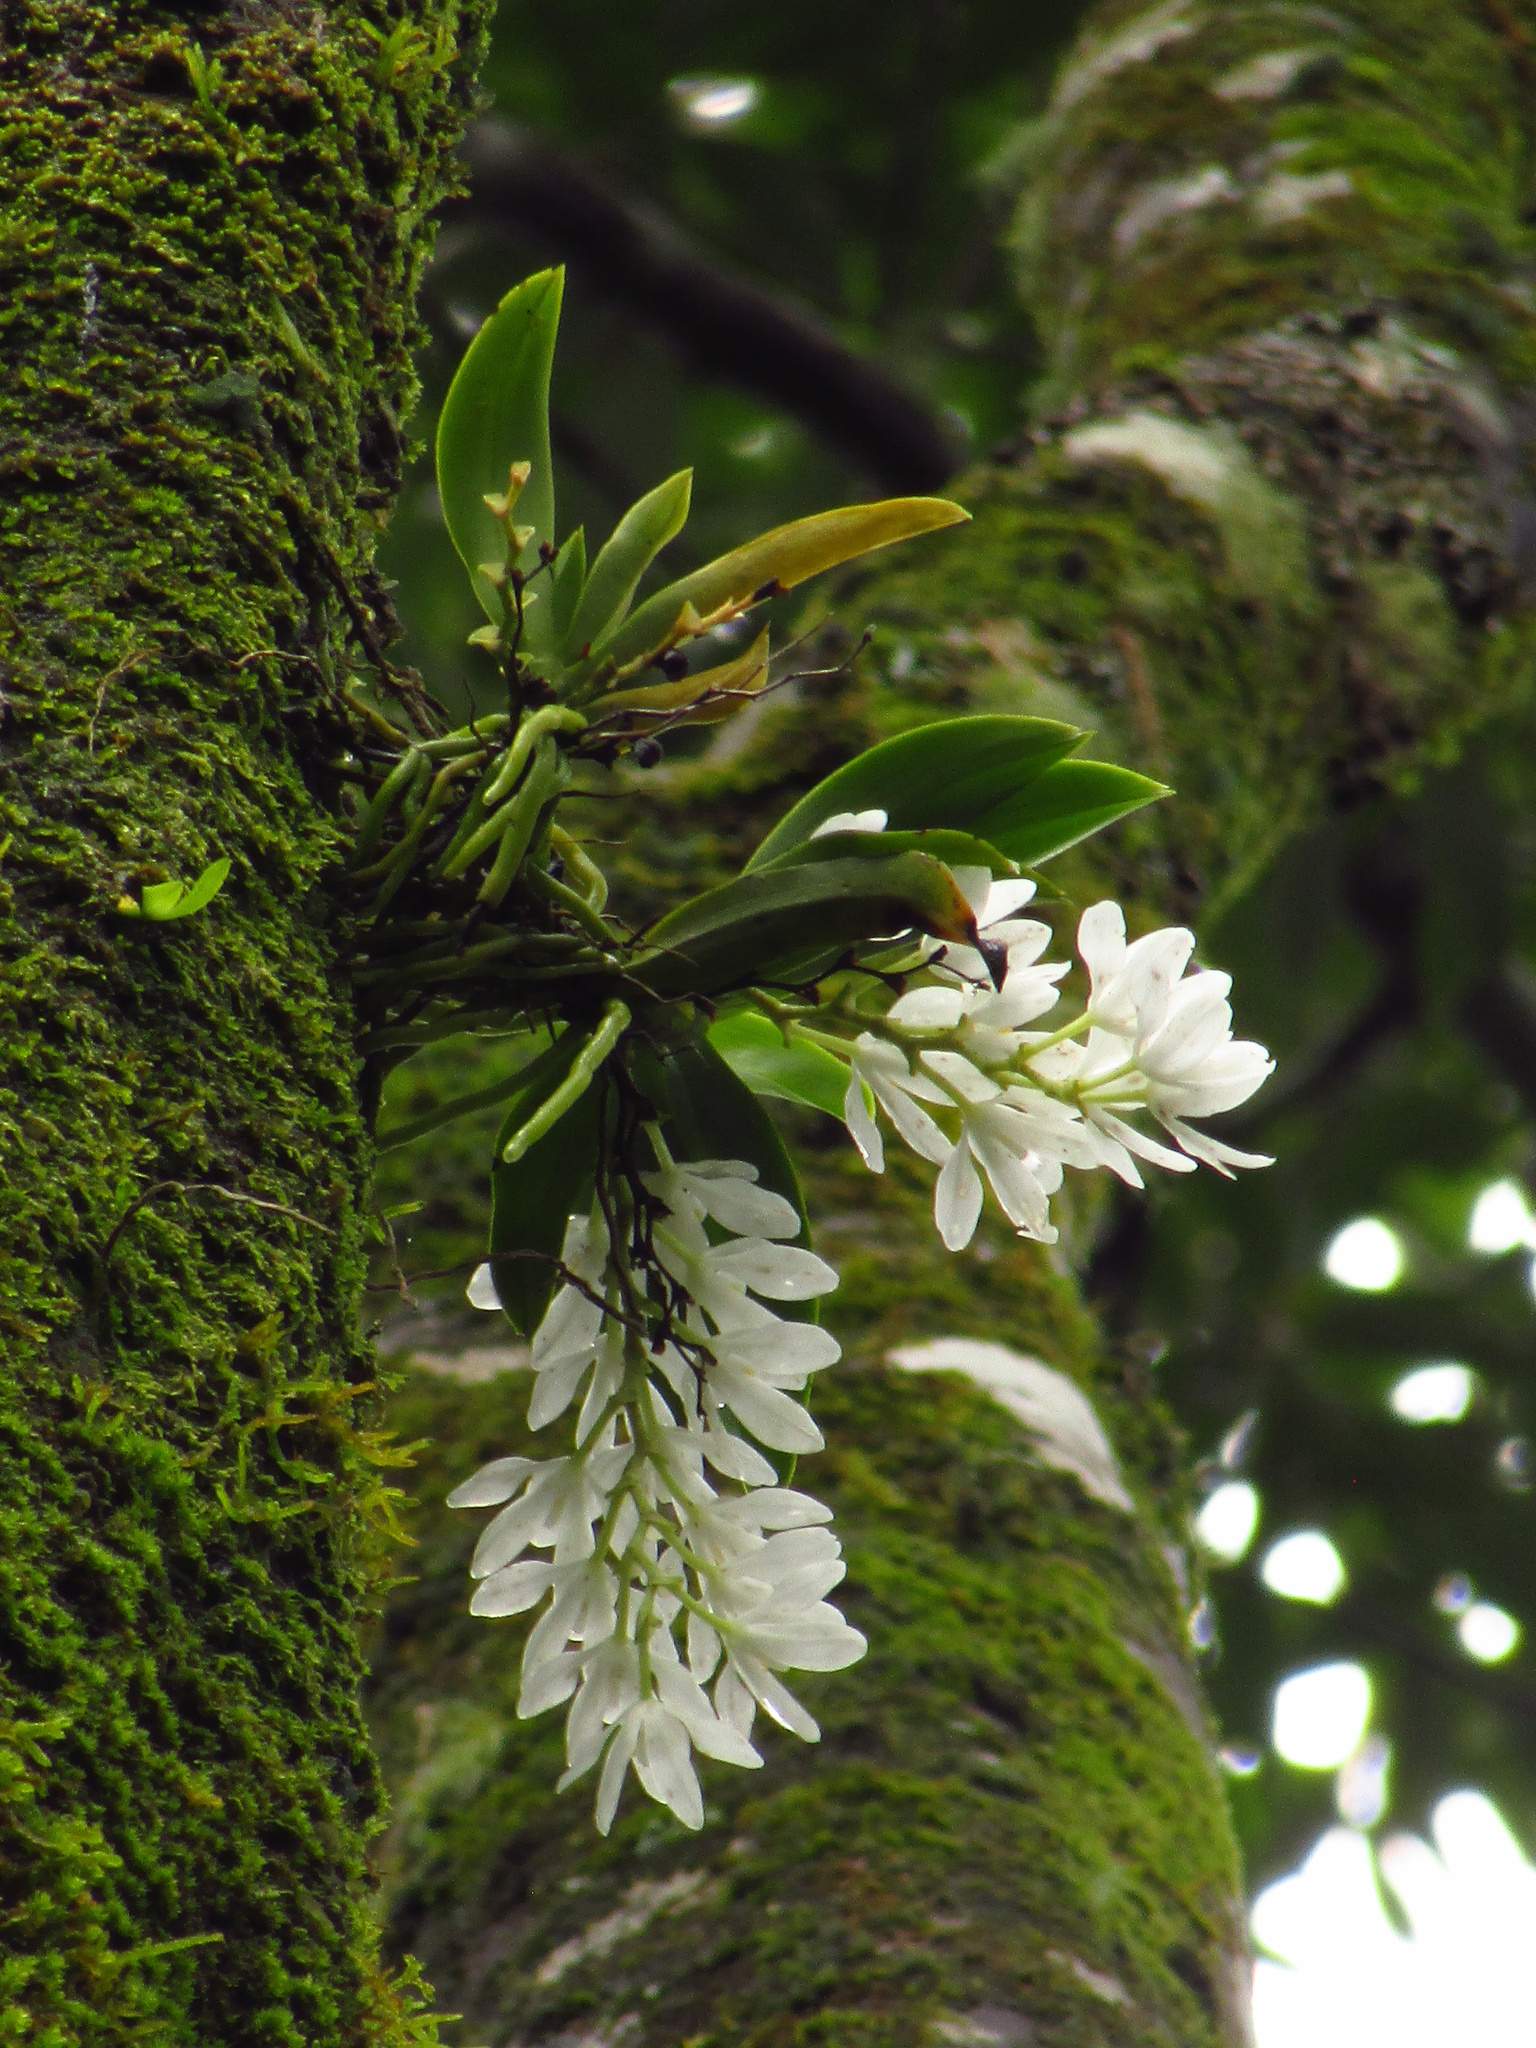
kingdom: Plantae
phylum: Tracheophyta
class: Liliopsida
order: Asparagales
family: Orchidaceae
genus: Sarcochilus
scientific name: Sarcochilus falcatus
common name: Orange blossom orchid
